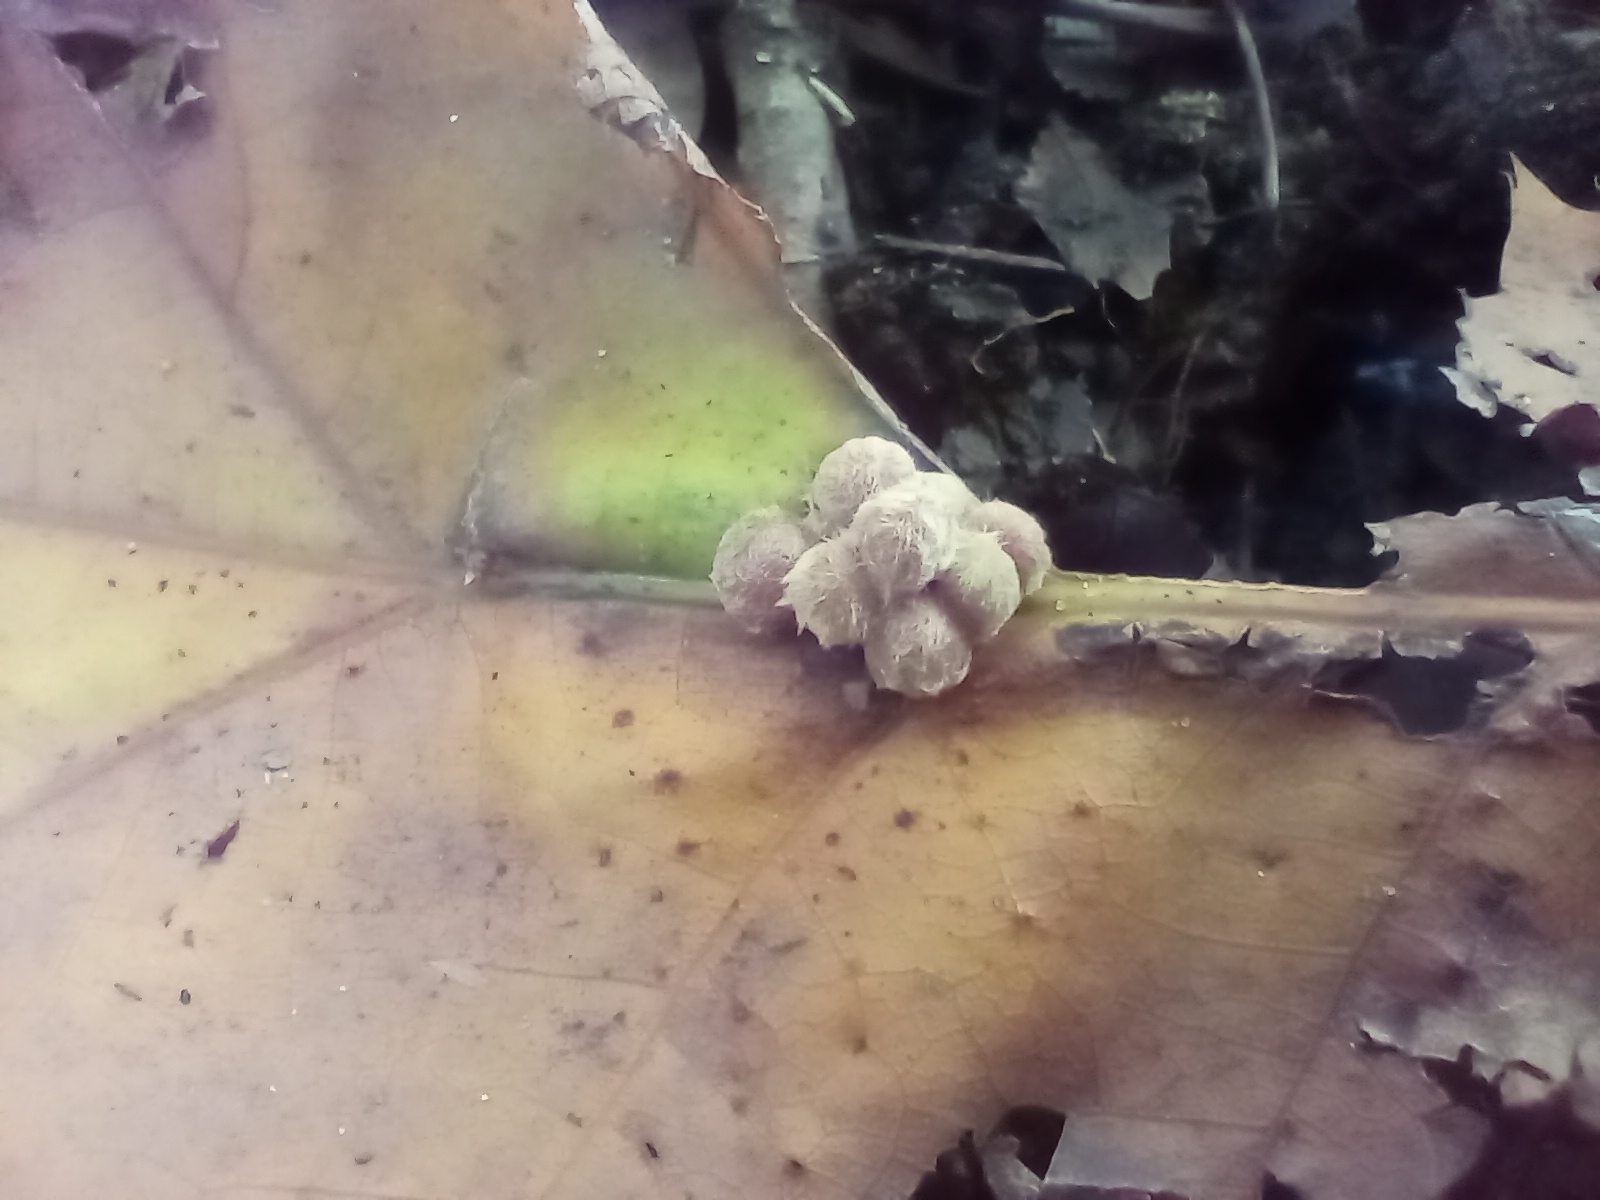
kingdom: Animalia
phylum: Arthropoda
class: Insecta
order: Hymenoptera
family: Cynipidae
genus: Callirhytis
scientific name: Callirhytis
